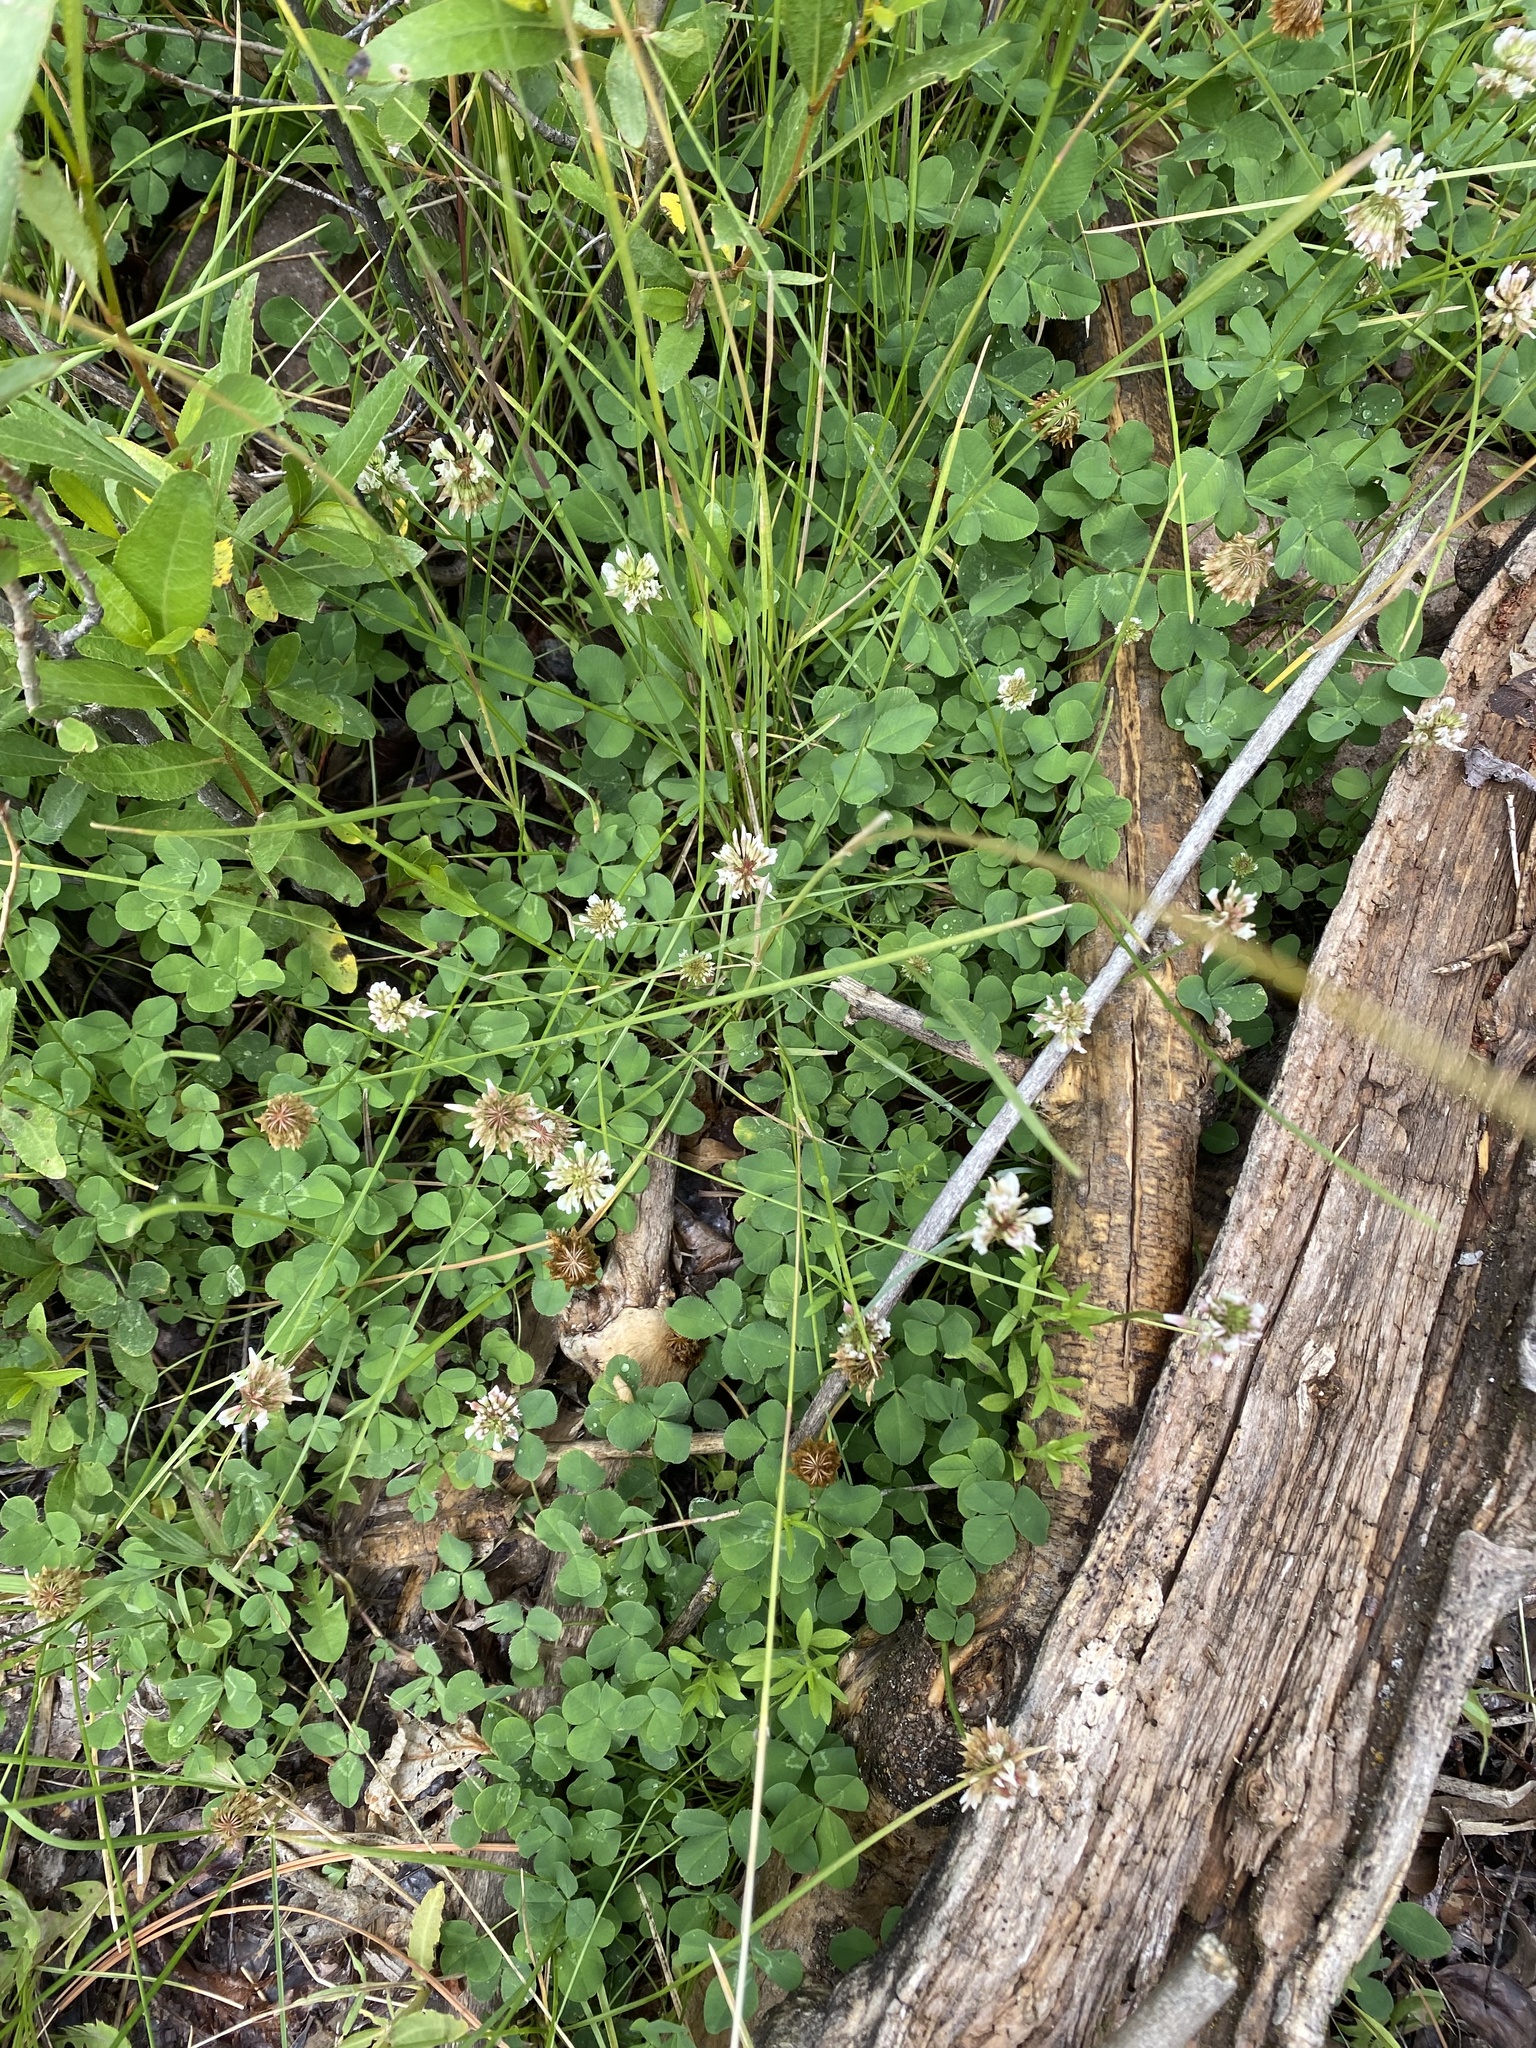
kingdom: Plantae
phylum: Tracheophyta
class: Magnoliopsida
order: Fabales
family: Fabaceae
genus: Trifolium
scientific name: Trifolium repens
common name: White clover
